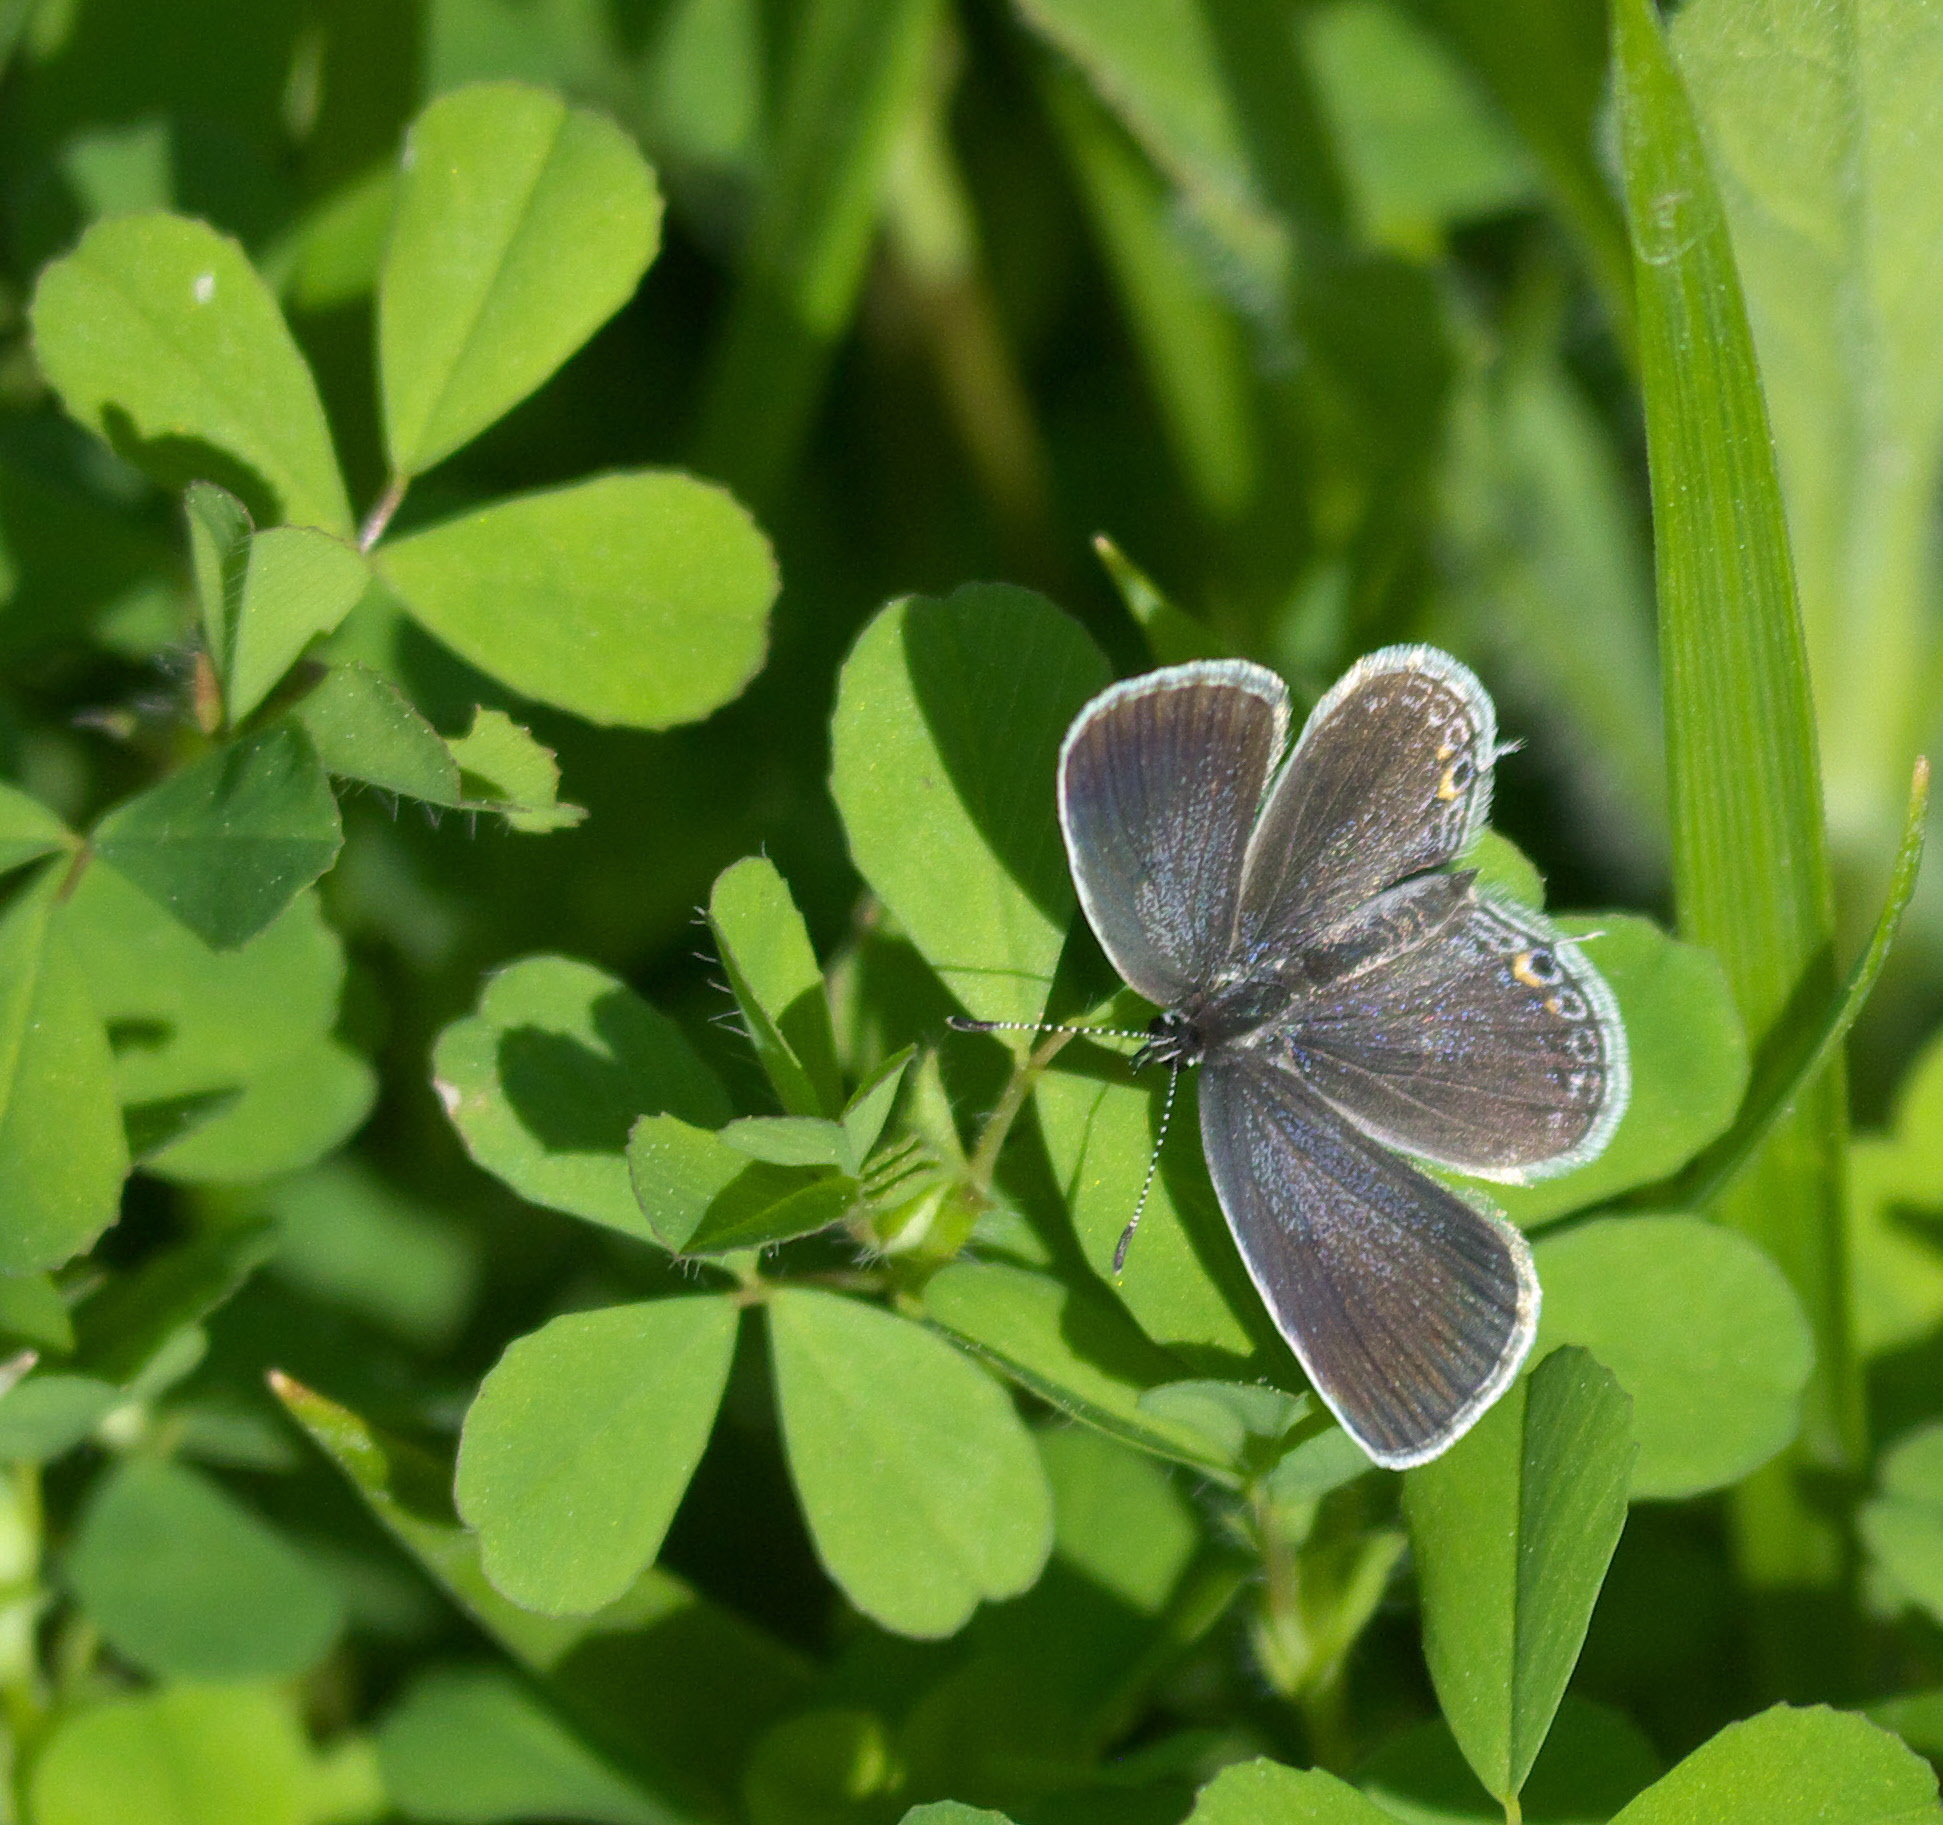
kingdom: Animalia
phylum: Arthropoda
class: Insecta
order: Lepidoptera
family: Lycaenidae
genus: Elkalyce
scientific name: Elkalyce comyntas
